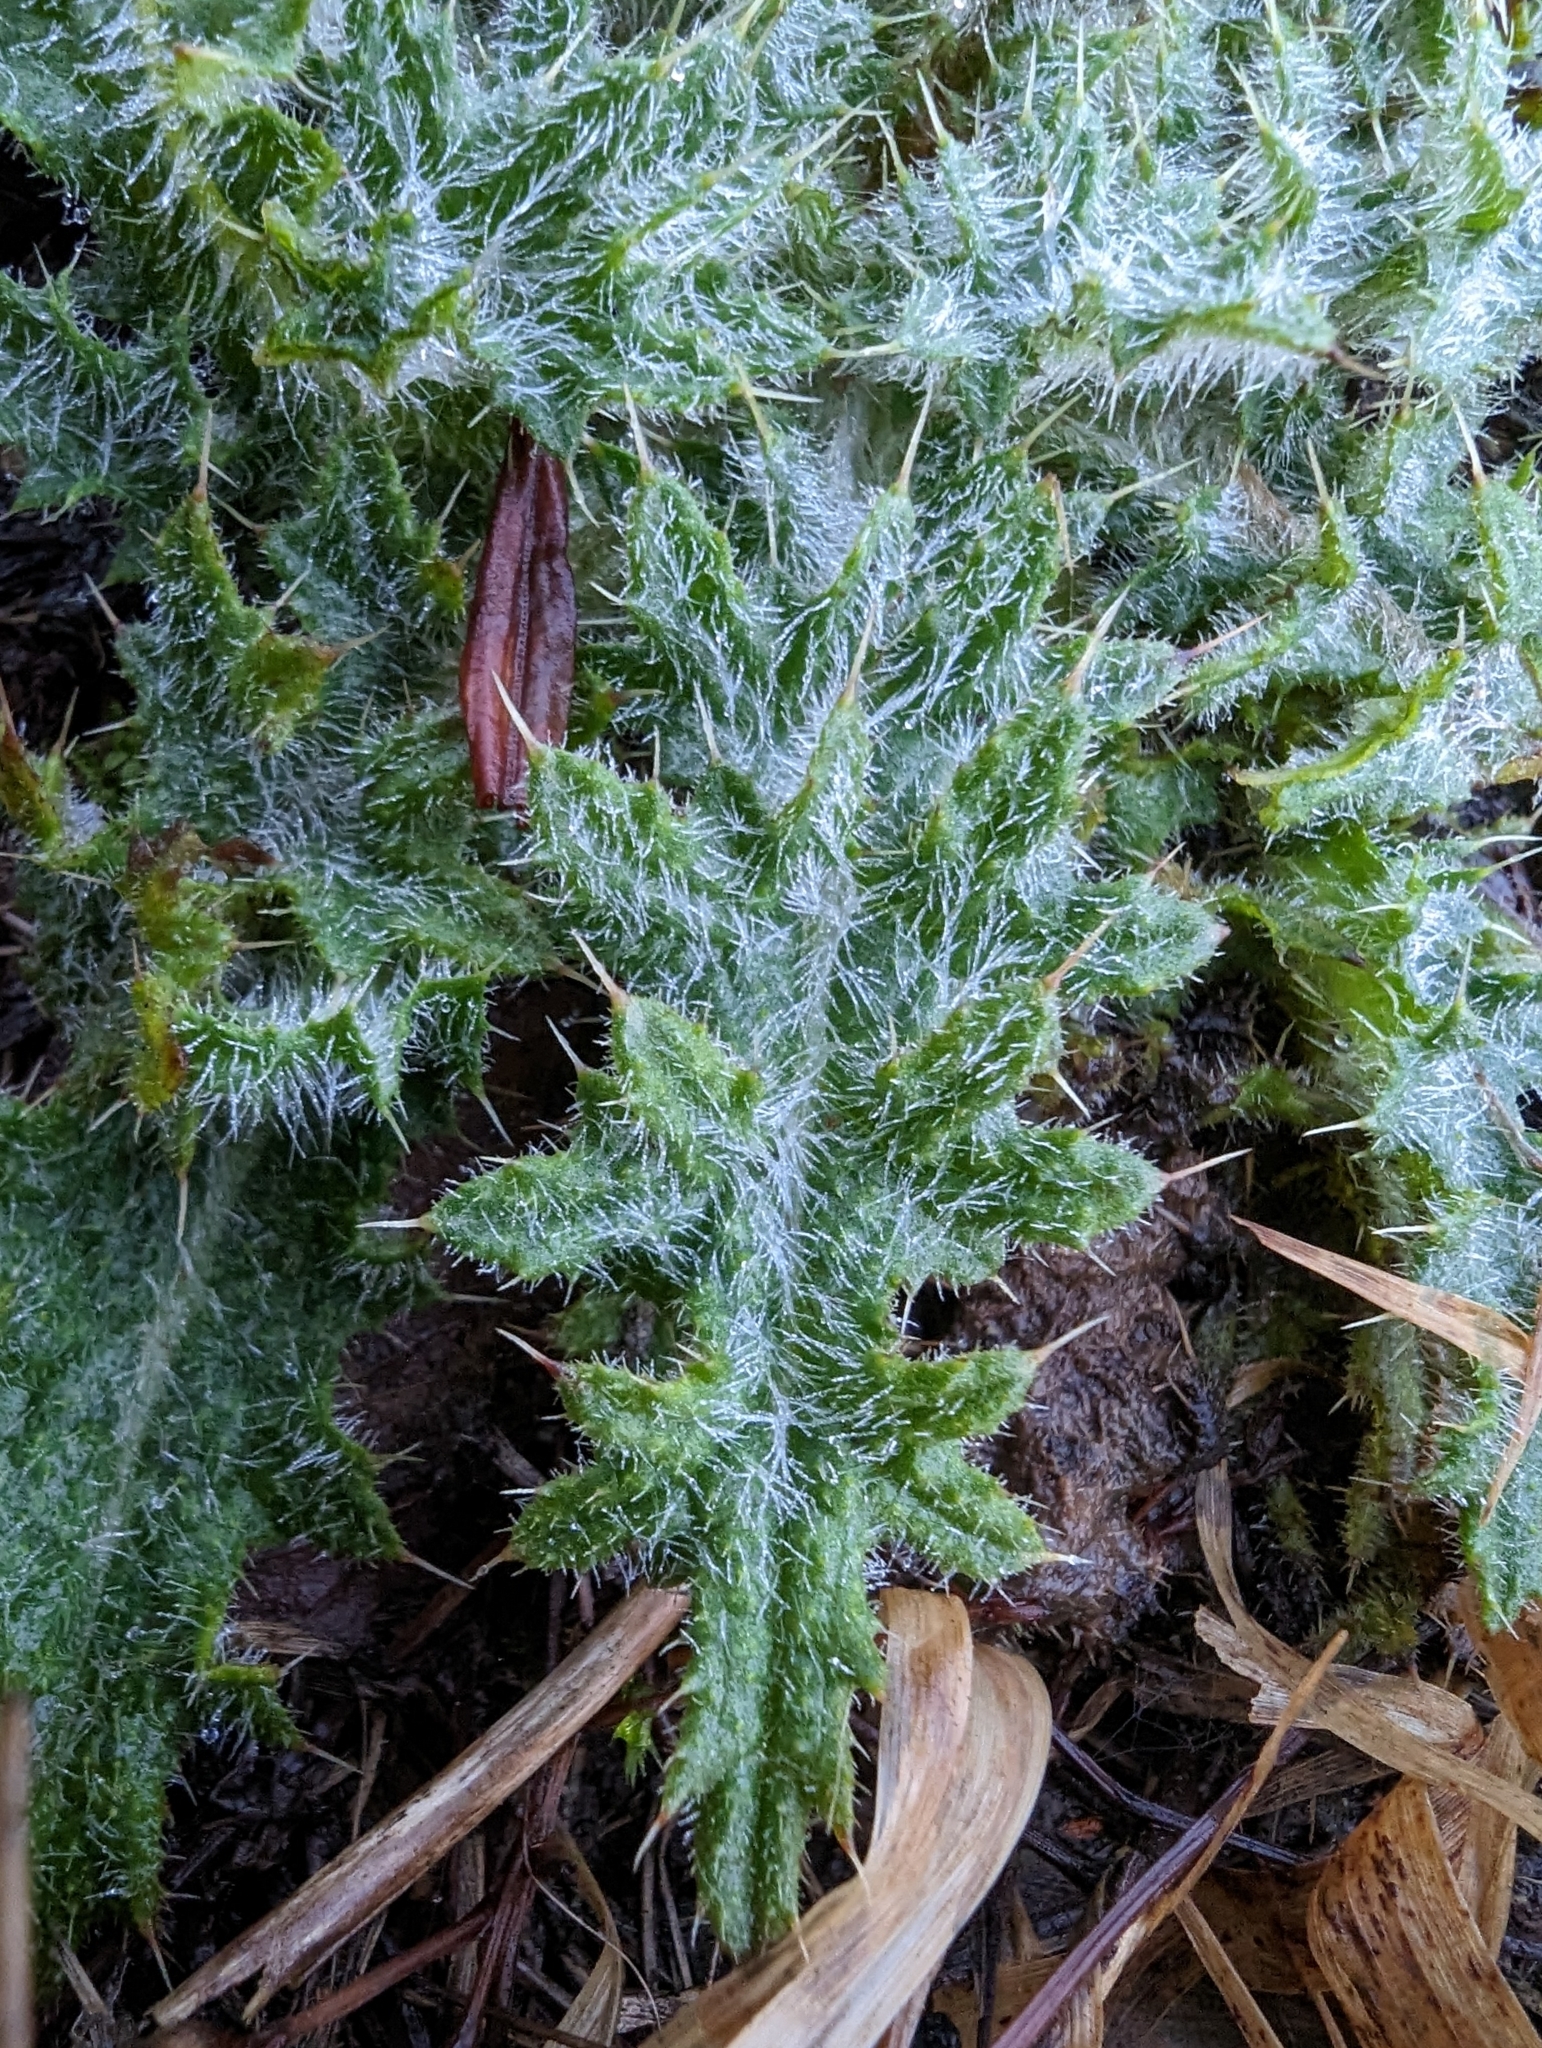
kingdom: Plantae
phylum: Tracheophyta
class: Magnoliopsida
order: Asterales
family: Asteraceae
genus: Cirsium
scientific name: Cirsium vulgare
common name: Bull thistle
